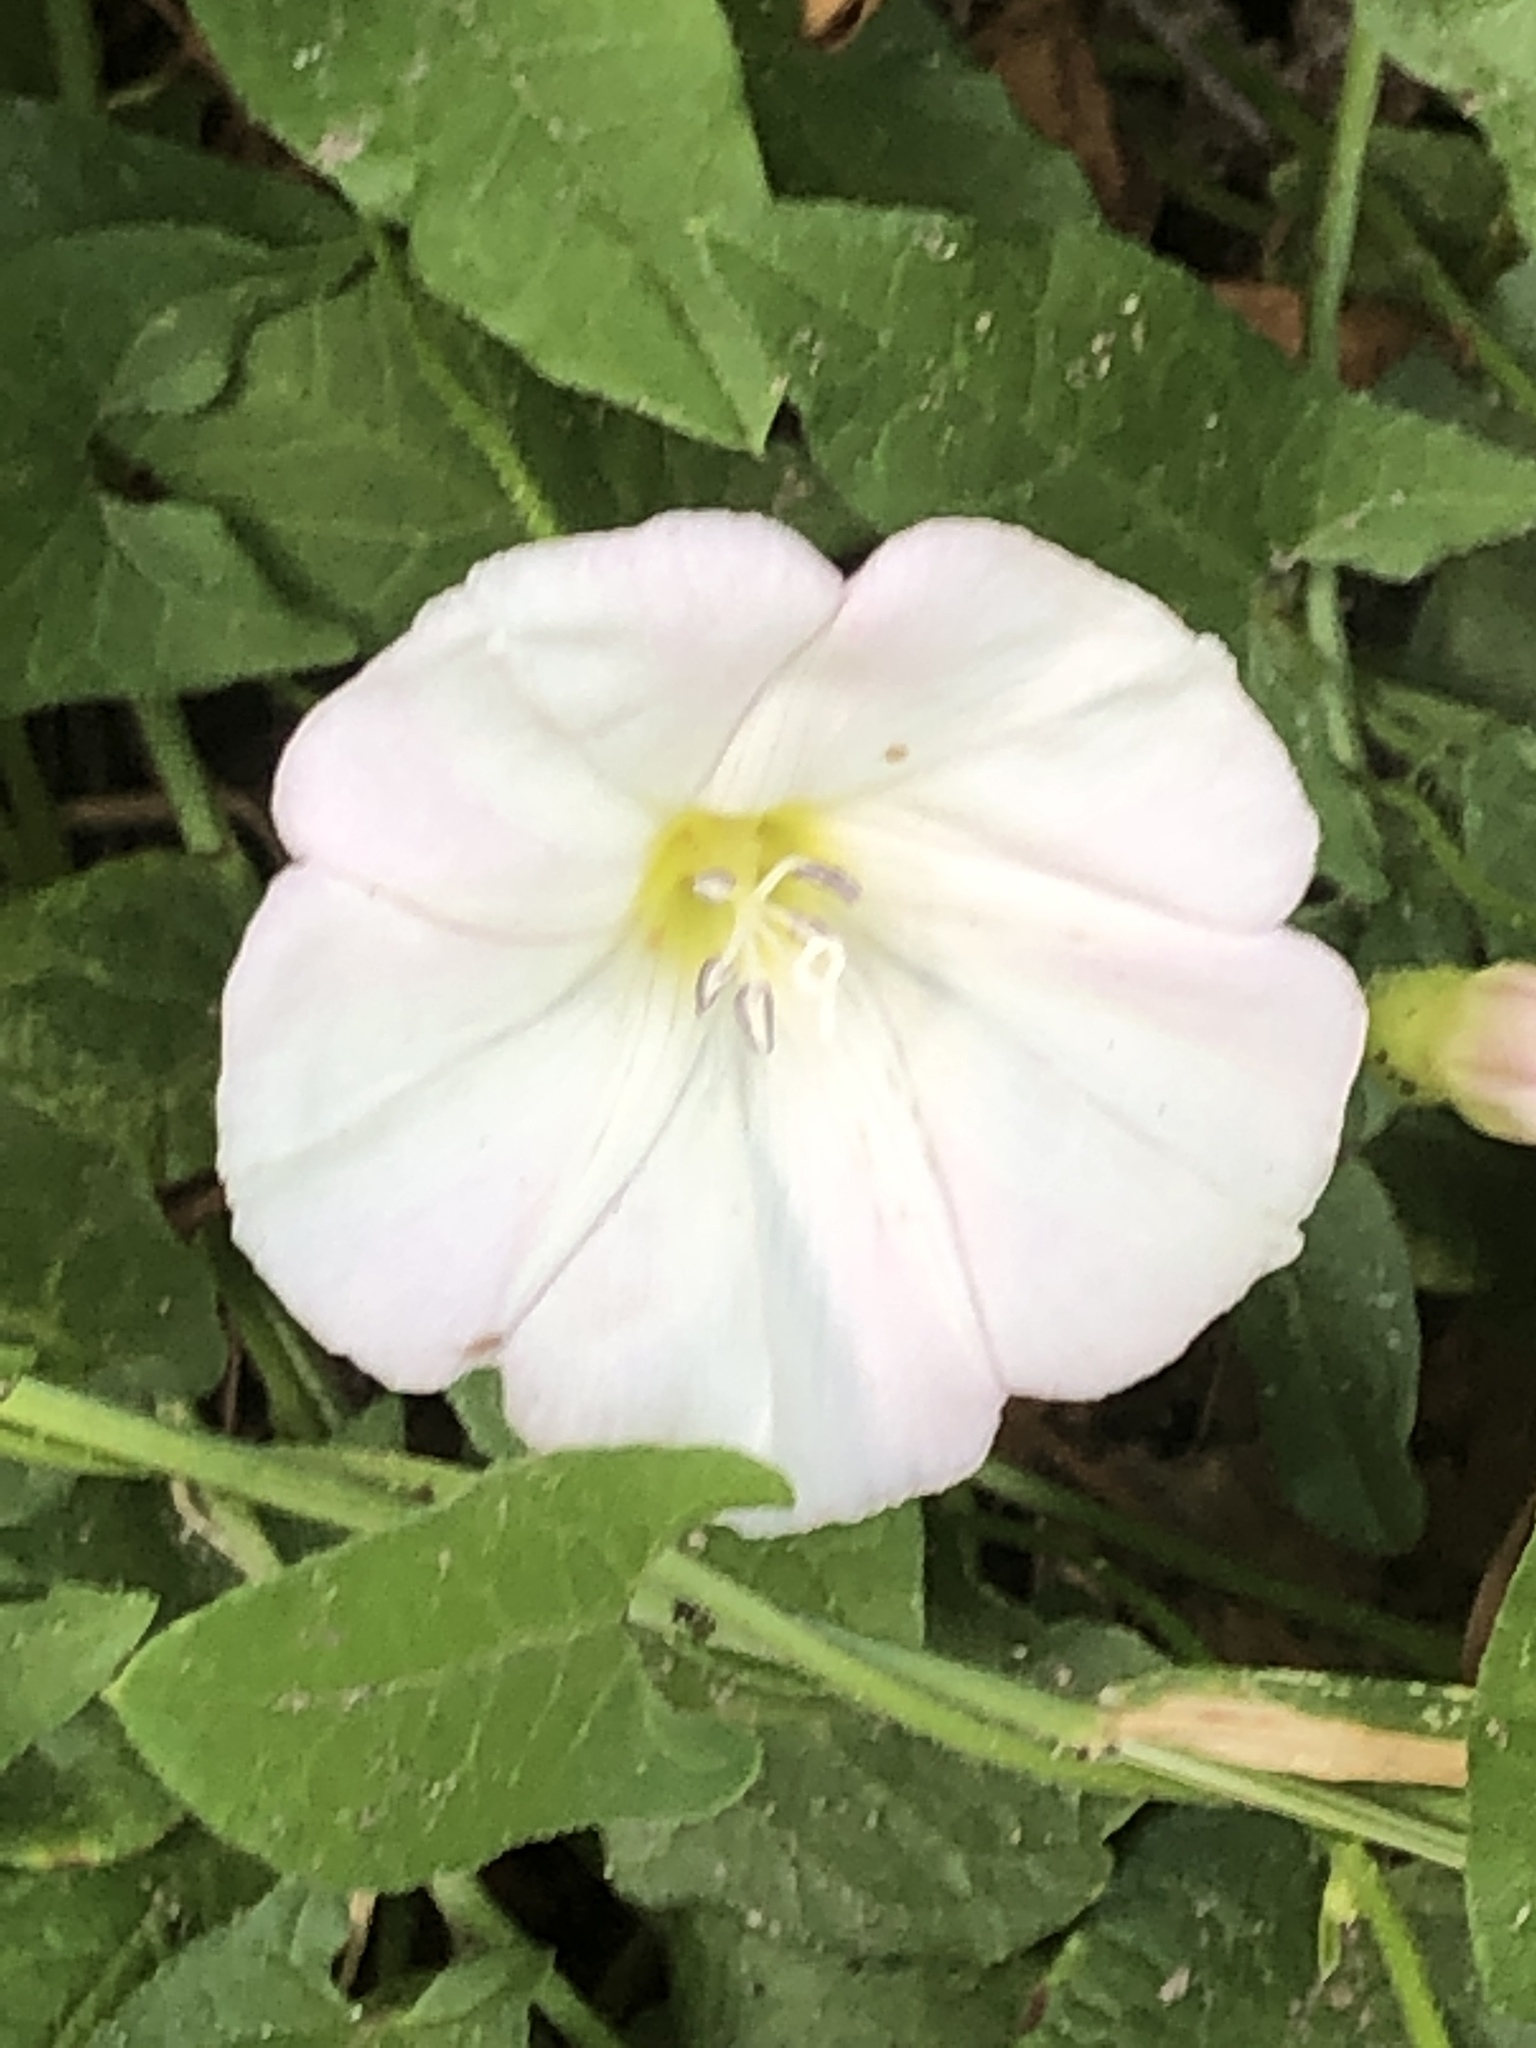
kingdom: Plantae
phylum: Tracheophyta
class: Magnoliopsida
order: Solanales
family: Convolvulaceae
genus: Convolvulus
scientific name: Convolvulus arvensis
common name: Field bindweed
